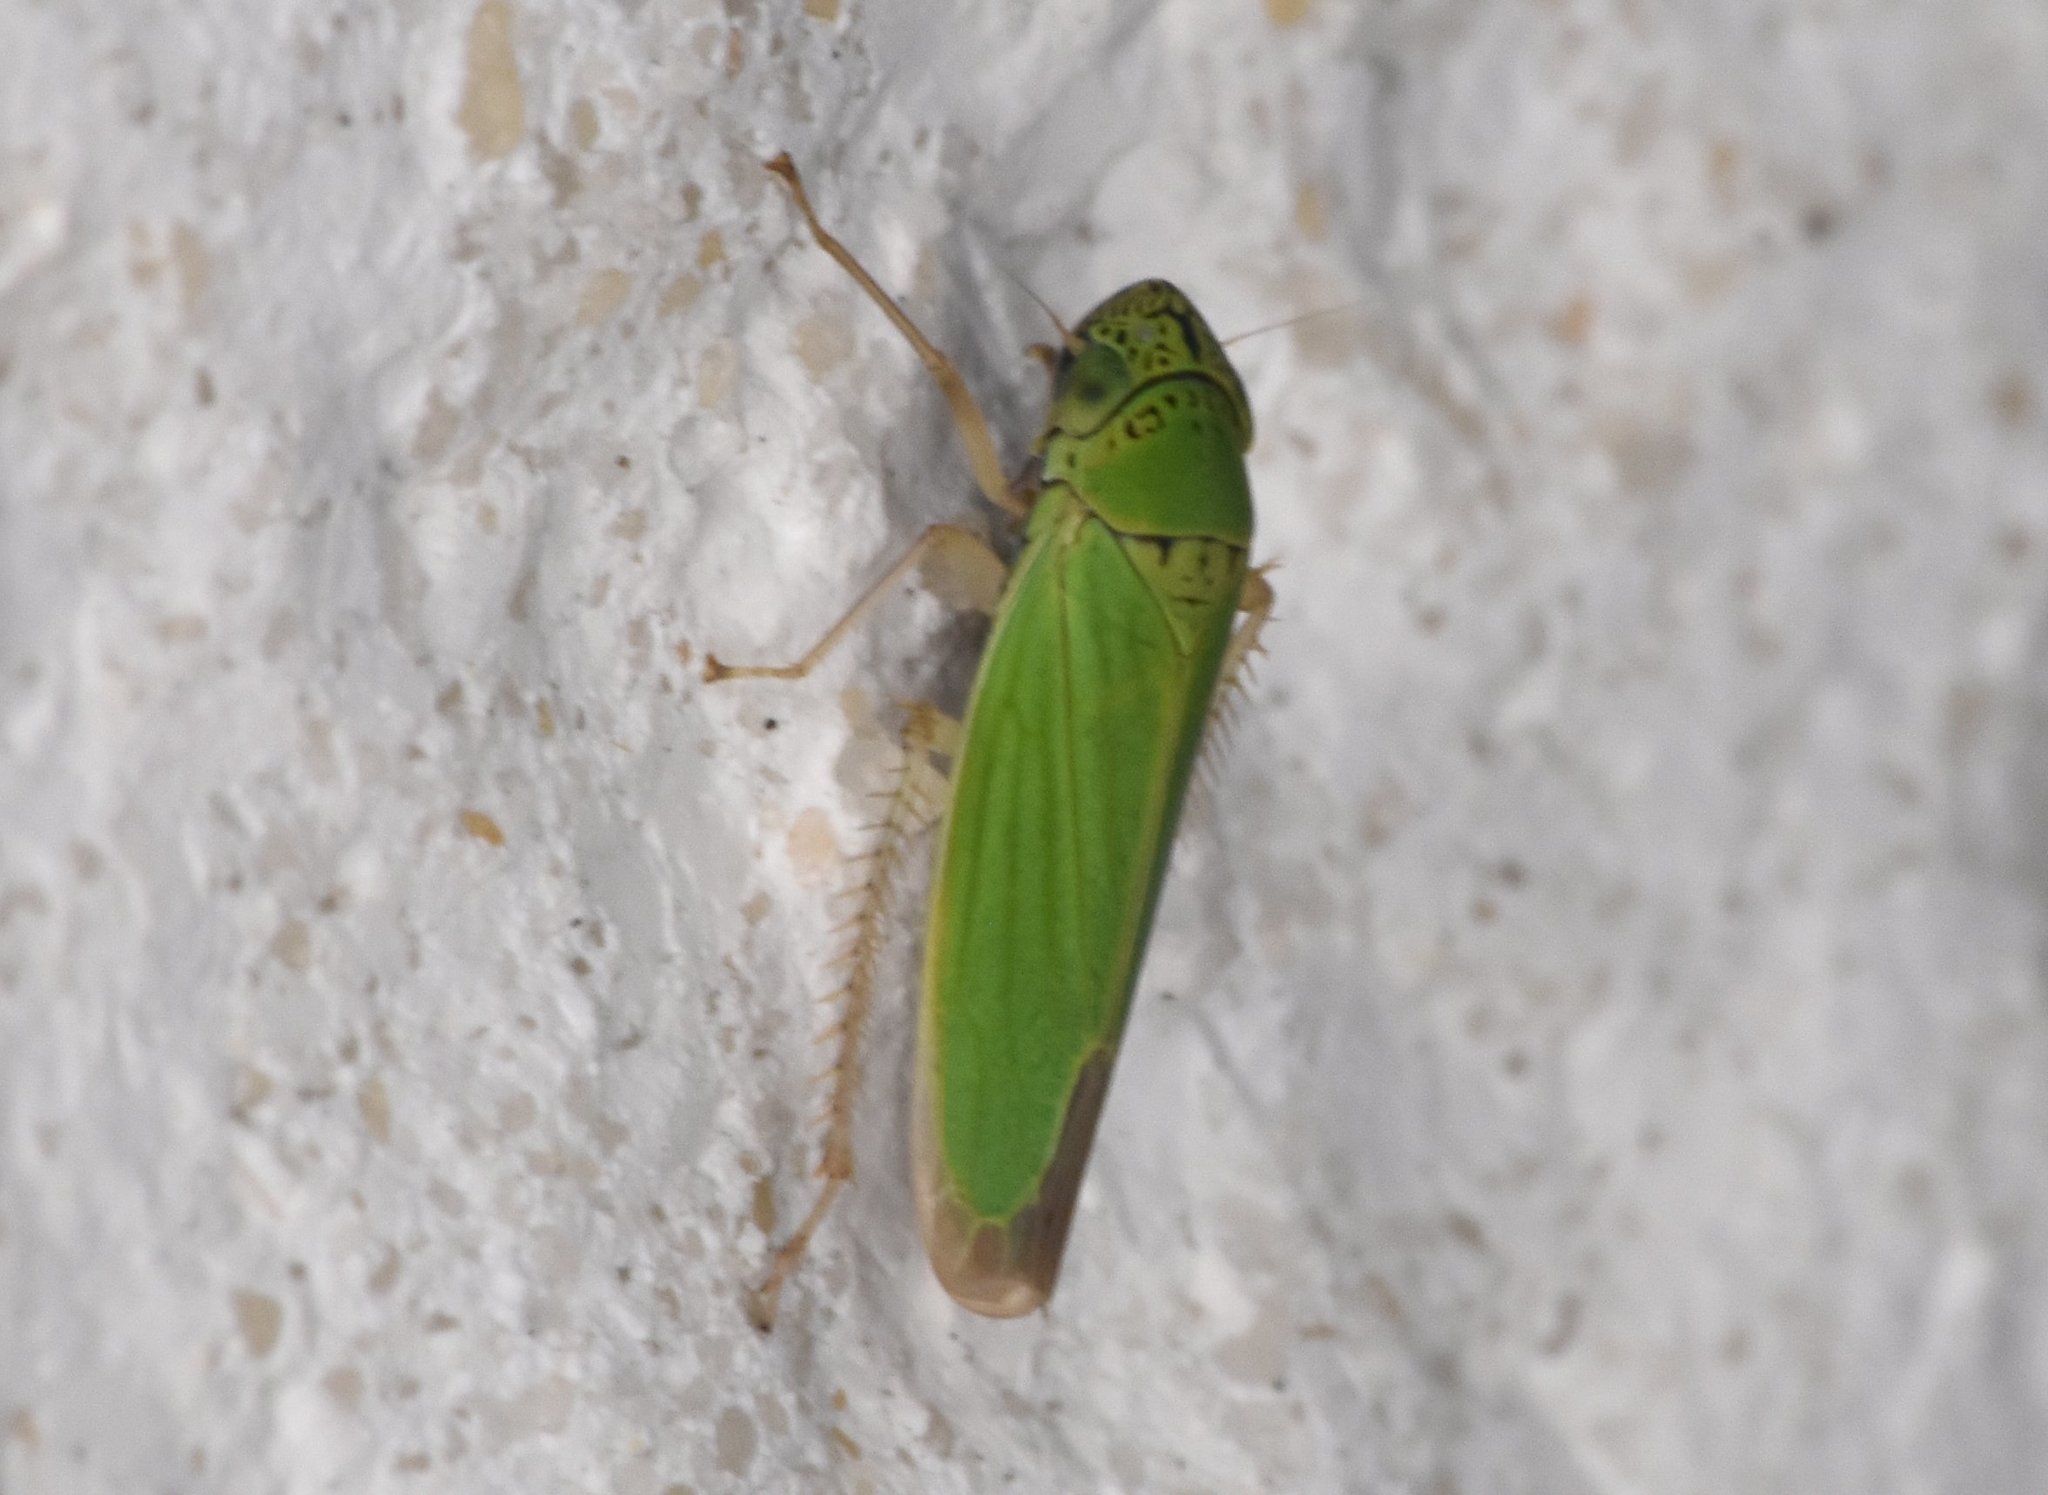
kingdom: Animalia
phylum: Arthropoda
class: Insecta
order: Hemiptera
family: Cicadellidae
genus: Hortensia
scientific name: Hortensia similis
